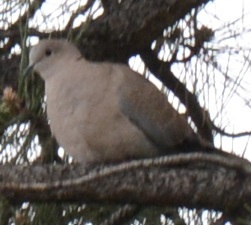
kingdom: Animalia
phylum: Chordata
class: Aves
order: Columbiformes
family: Columbidae
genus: Streptopelia
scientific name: Streptopelia decaocto
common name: Eurasian collared dove
